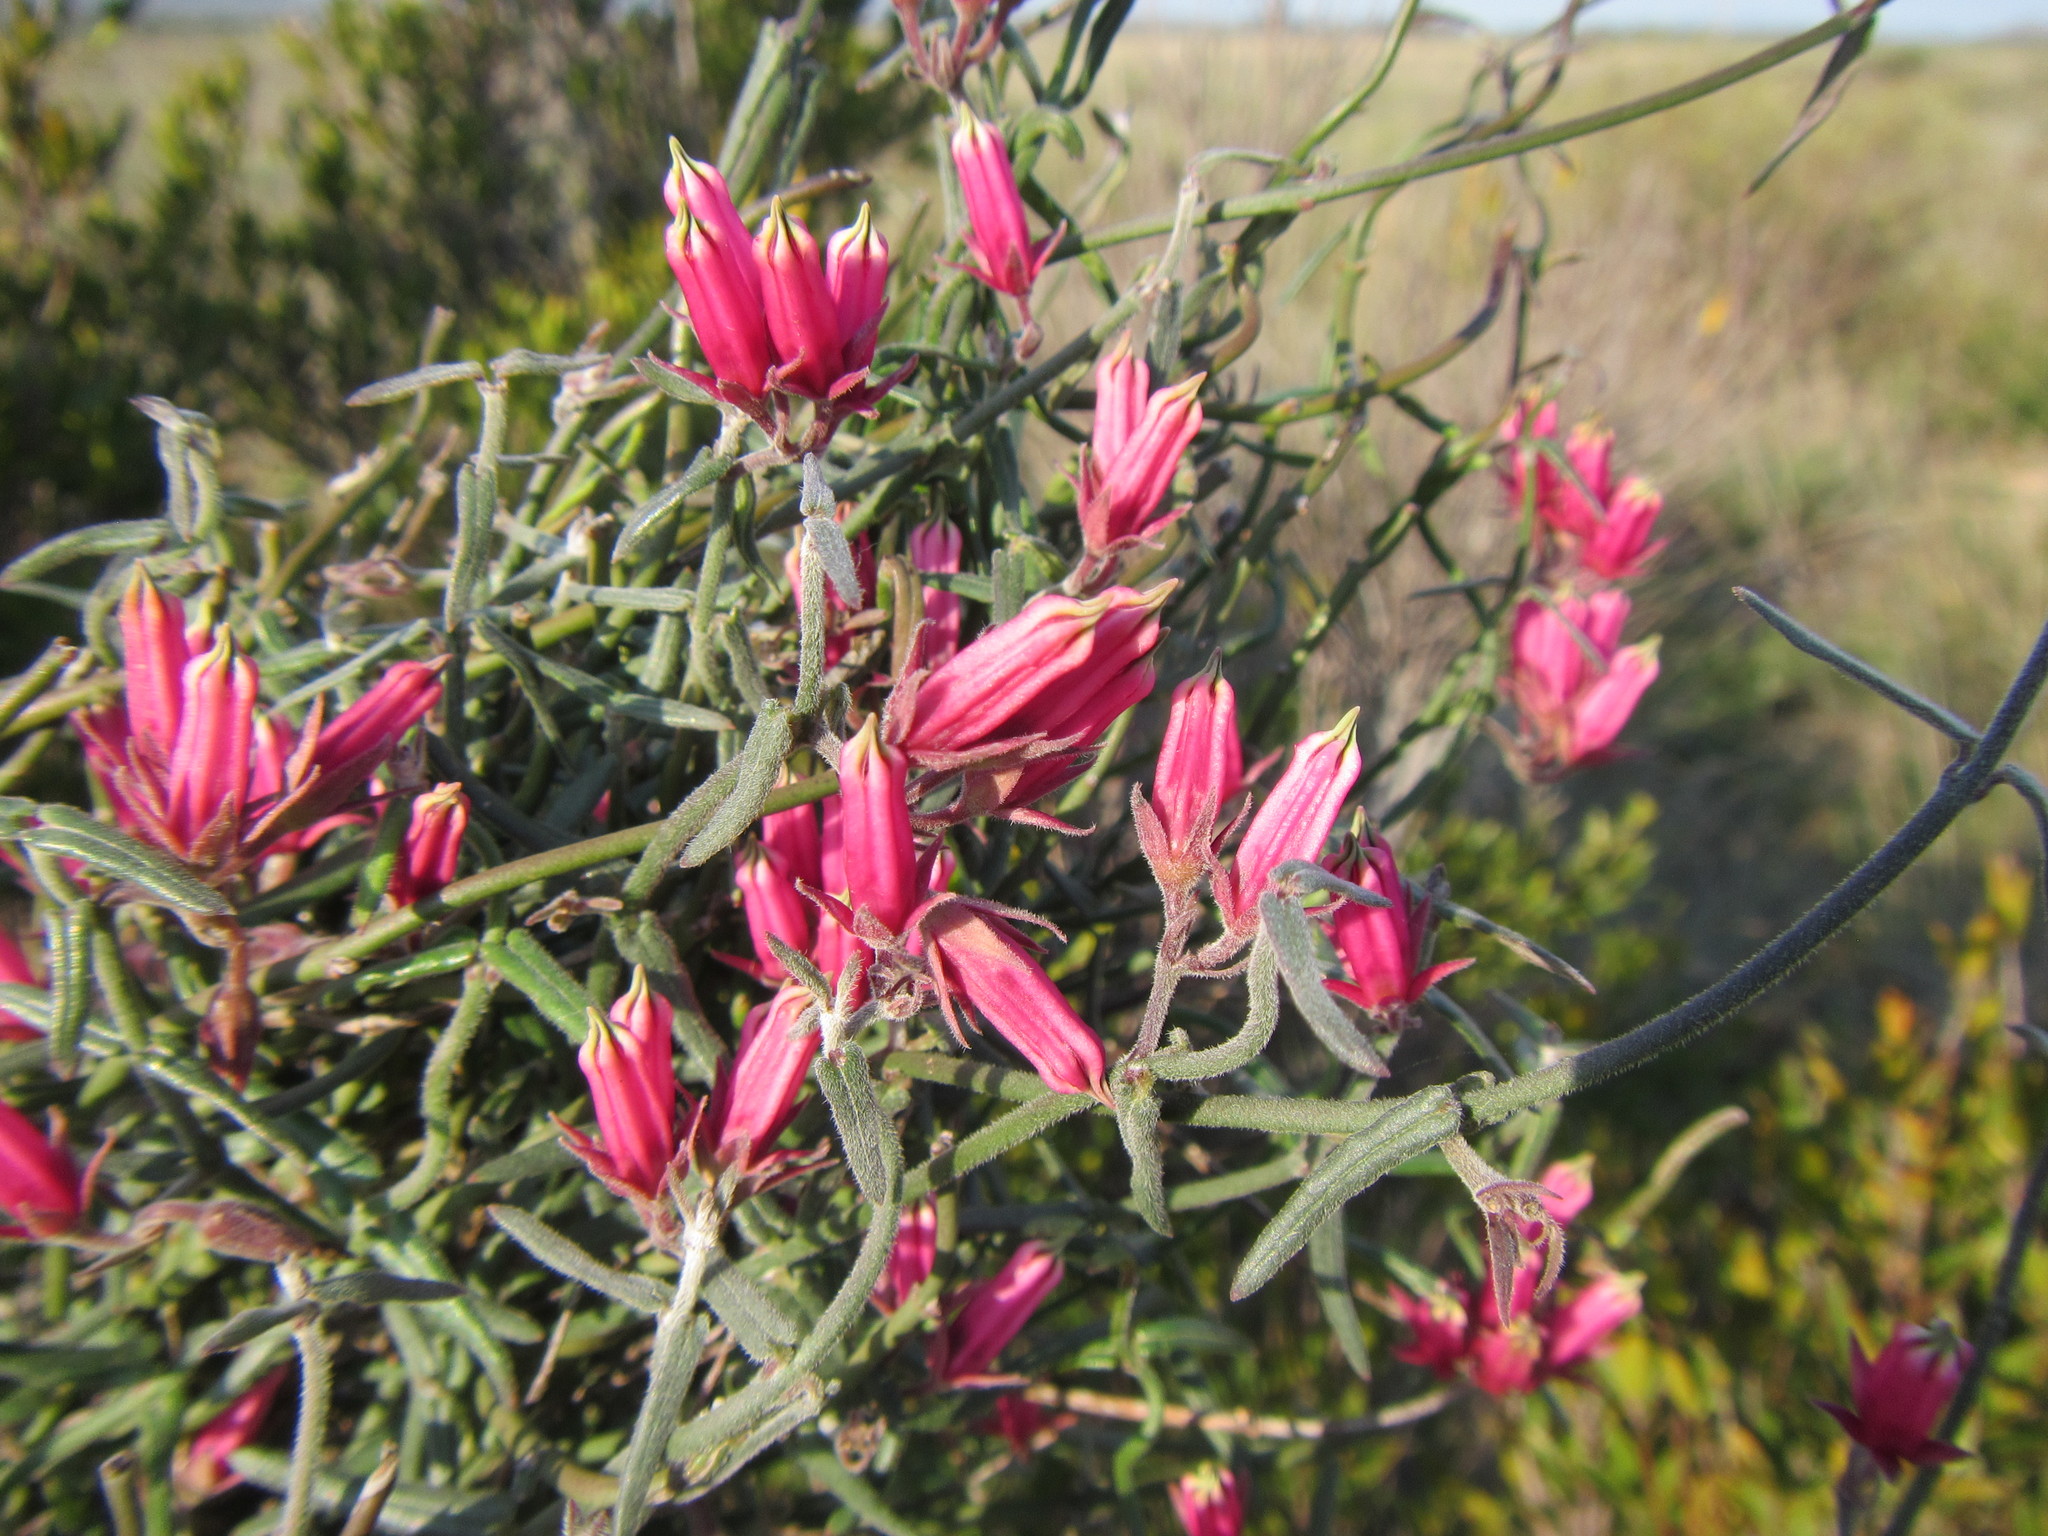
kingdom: Plantae
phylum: Tracheophyta
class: Magnoliopsida
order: Gentianales
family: Apocynaceae
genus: Microloma
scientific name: Microloma sagittatum
